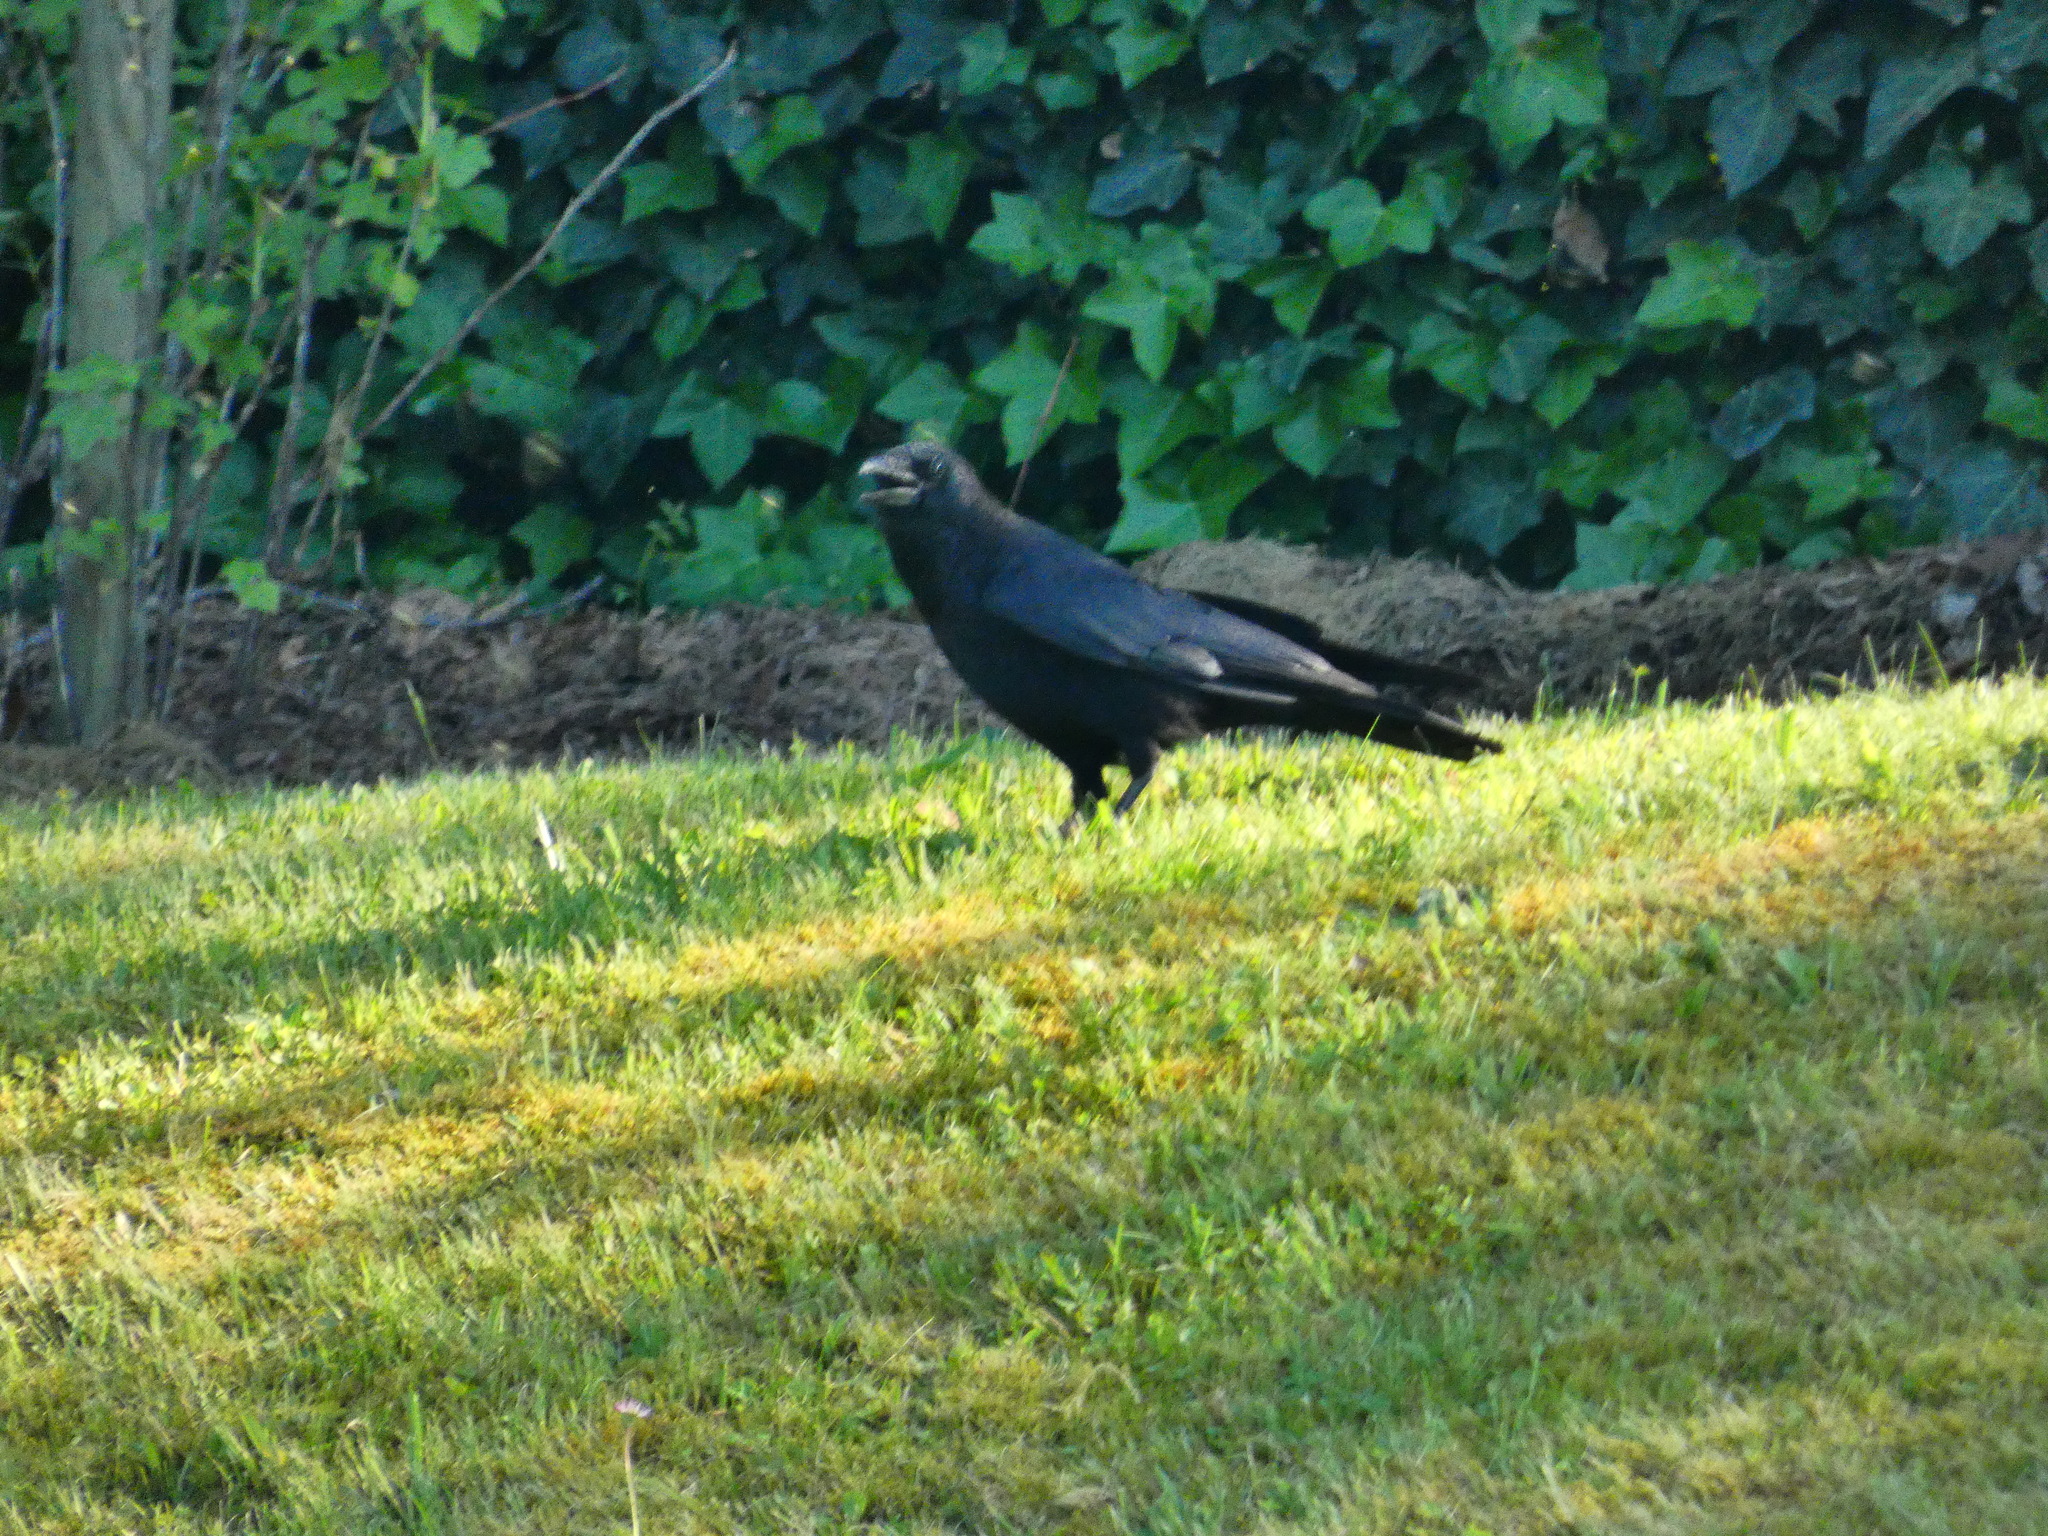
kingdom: Animalia
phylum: Chordata
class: Aves
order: Passeriformes
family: Corvidae
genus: Corvus
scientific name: Corvus corone
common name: Carrion crow
